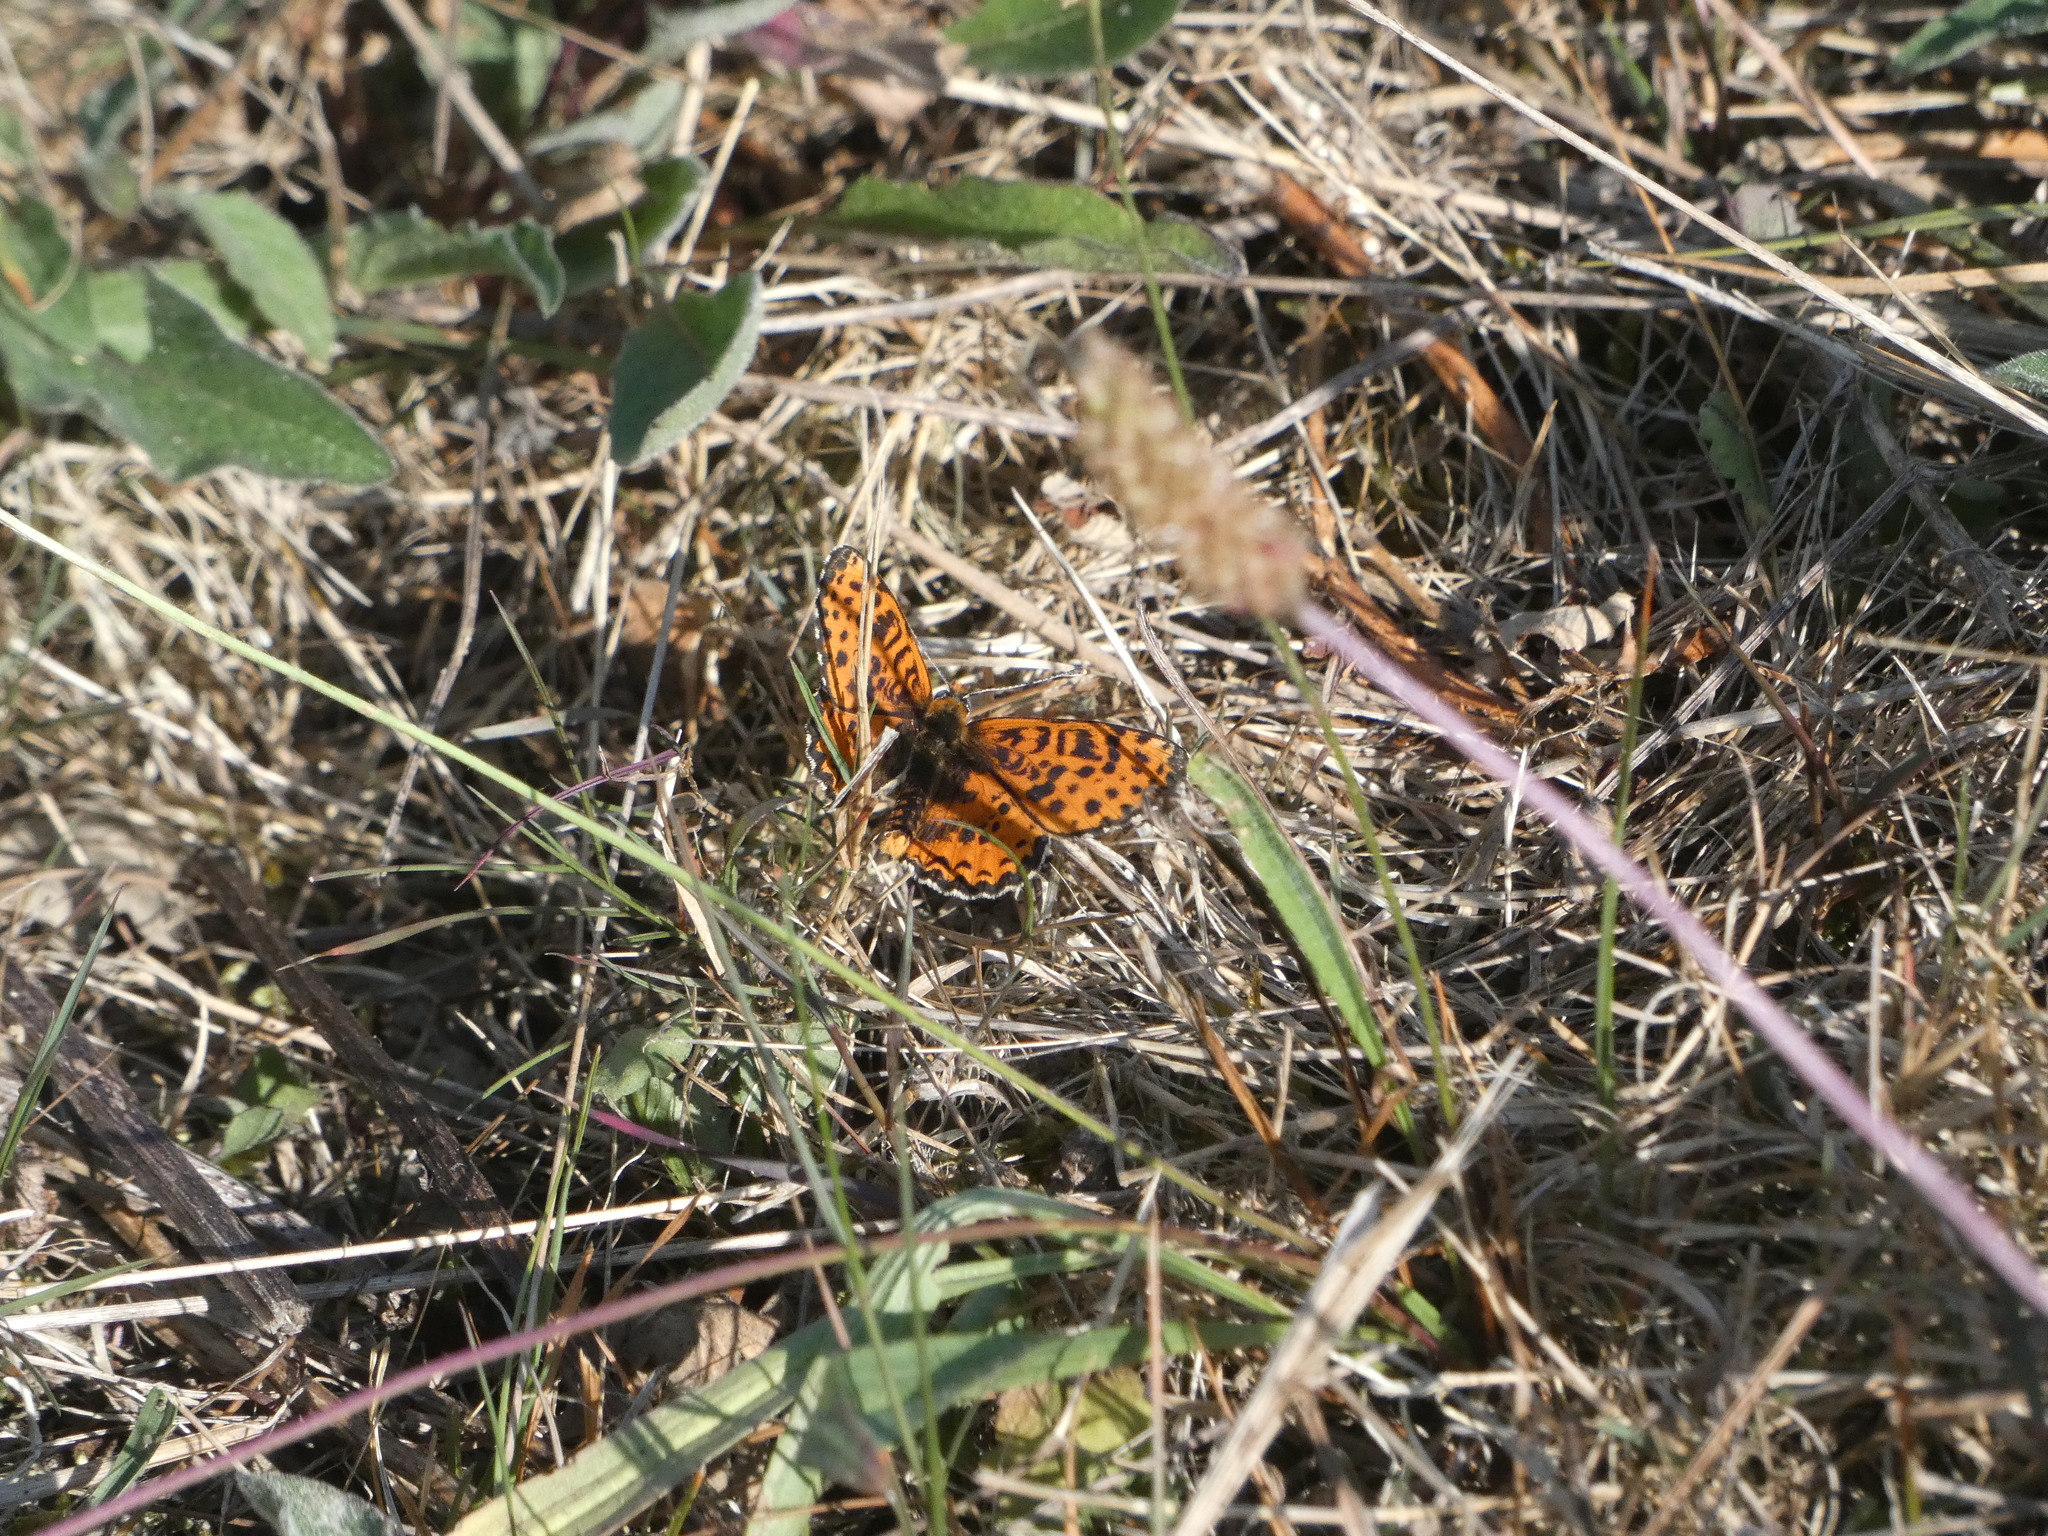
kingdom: Animalia
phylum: Arthropoda
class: Insecta
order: Lepidoptera
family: Nymphalidae
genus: Melitaea
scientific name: Melitaea didyma
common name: Spotted fritillary
